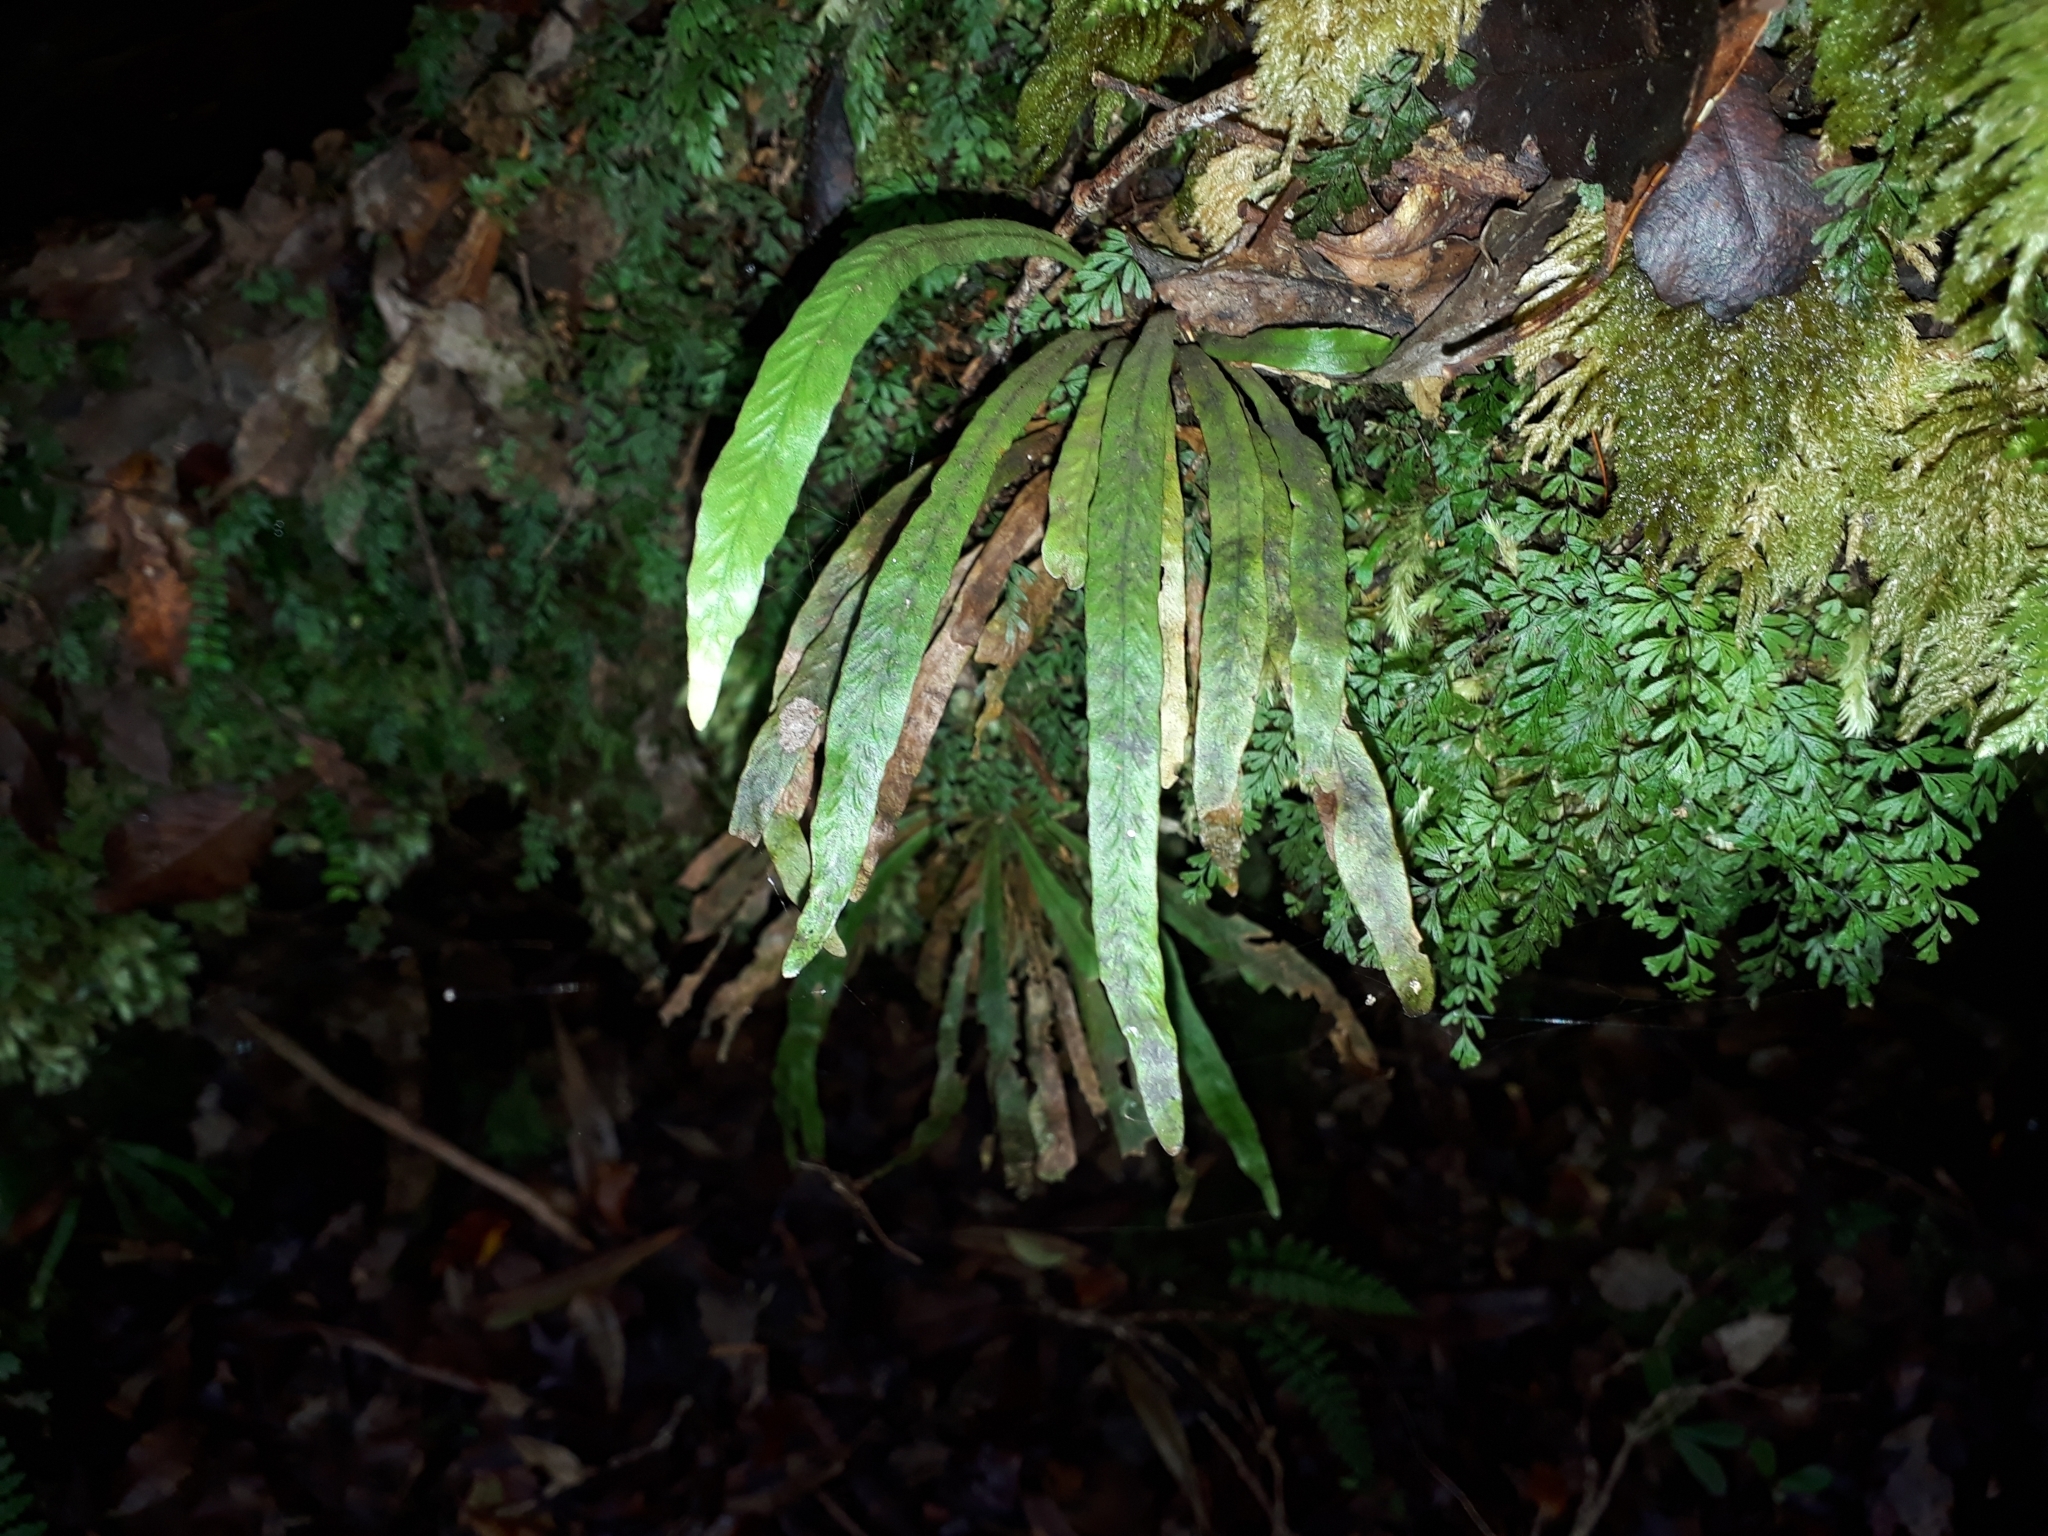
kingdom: Plantae
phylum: Tracheophyta
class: Polypodiopsida
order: Polypodiales
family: Polypodiaceae
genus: Notogrammitis
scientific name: Notogrammitis billardierei
